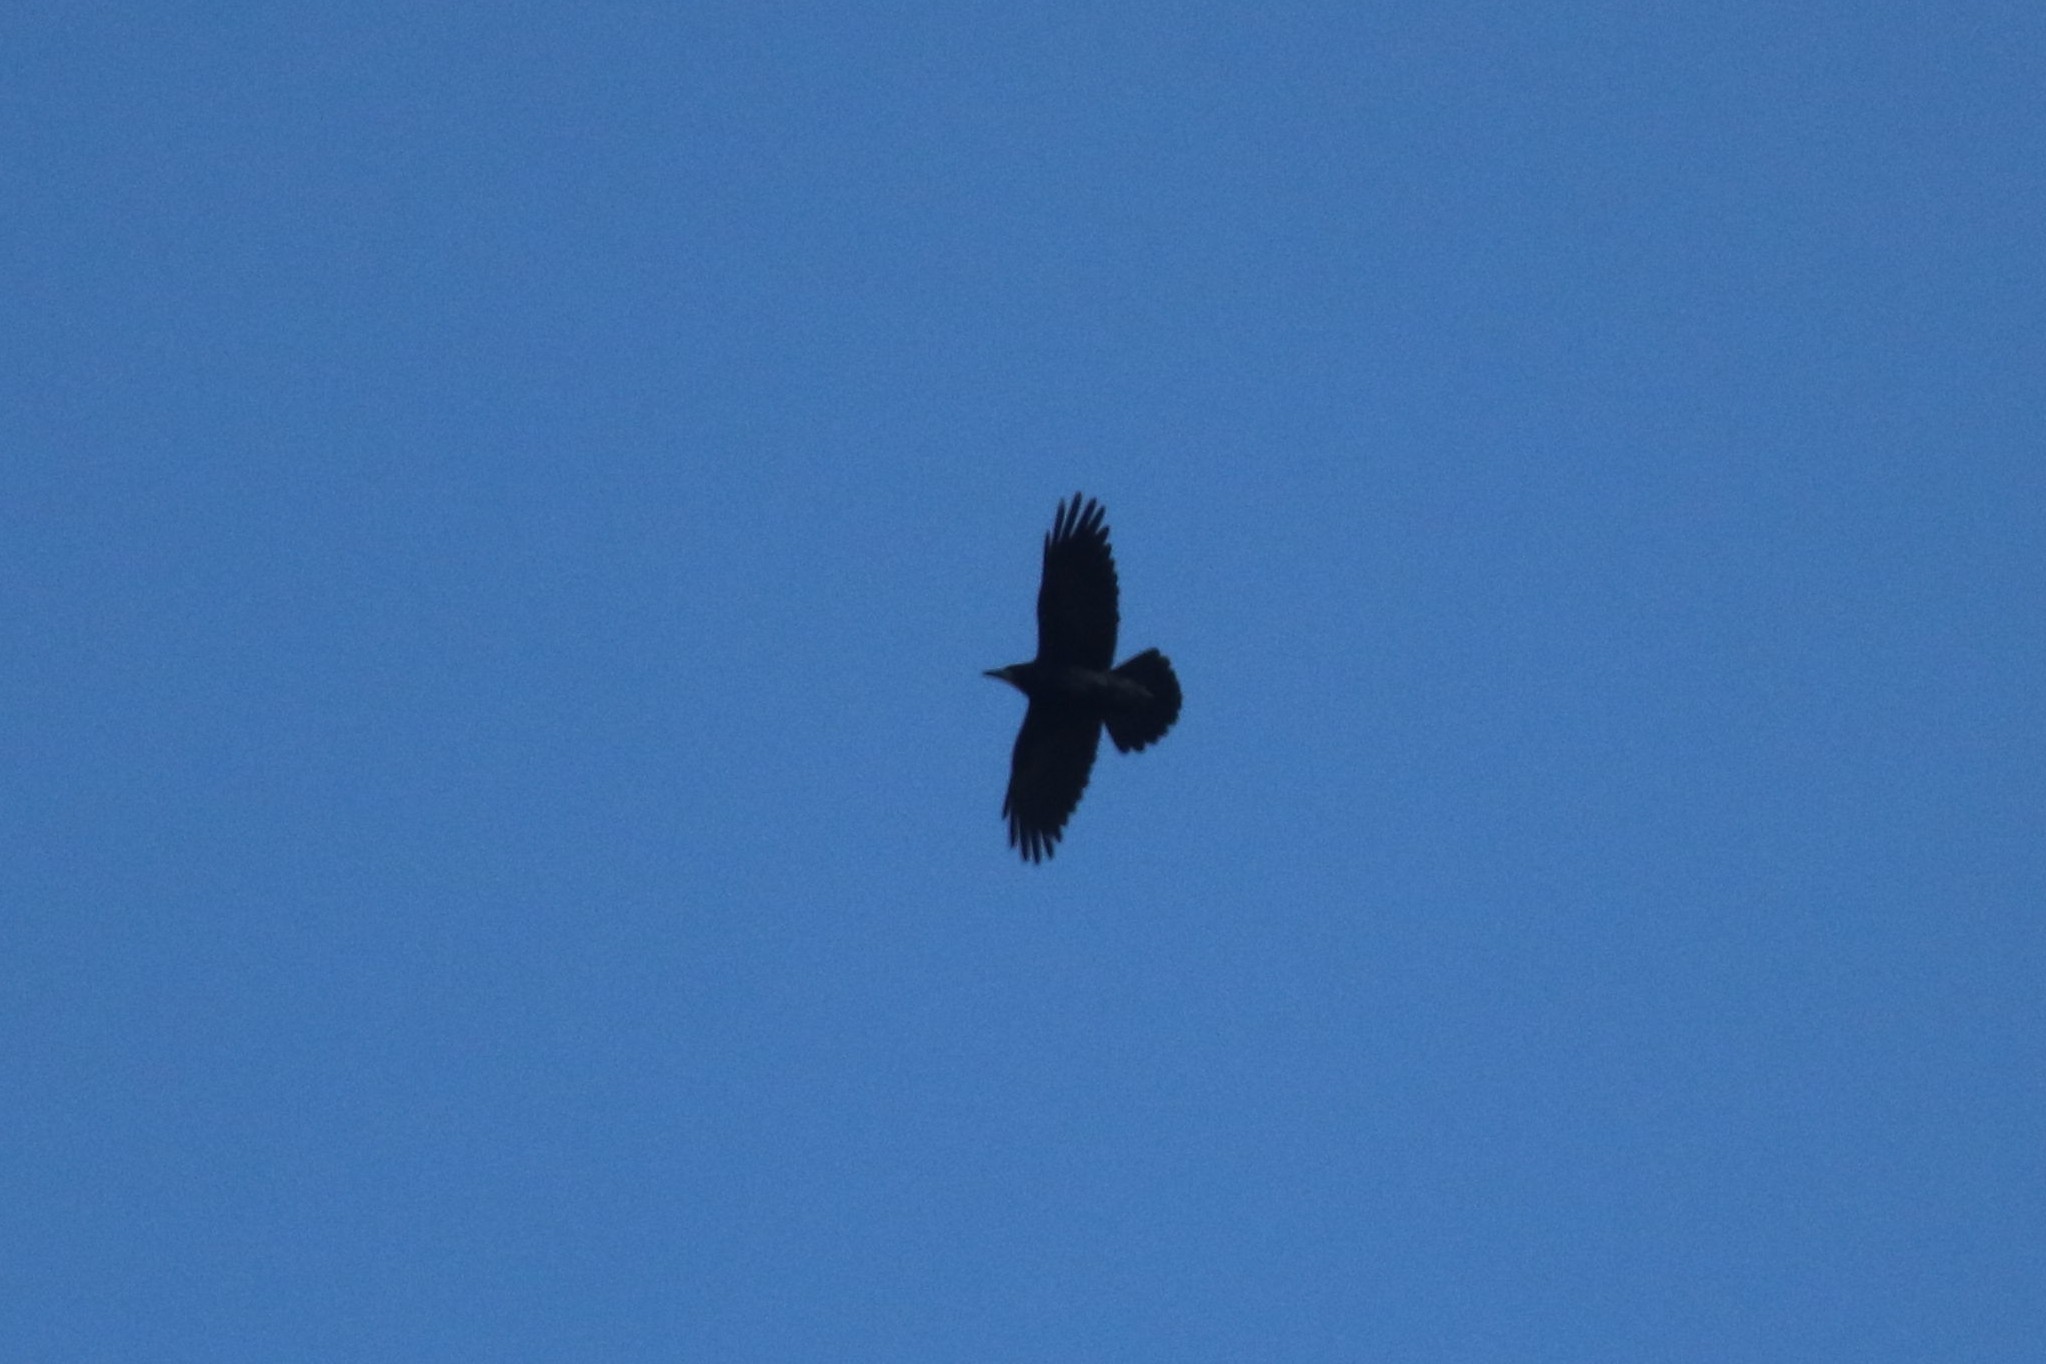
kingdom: Animalia
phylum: Chordata
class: Aves
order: Passeriformes
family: Corvidae
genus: Corvus
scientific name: Corvus corax
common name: Common raven
